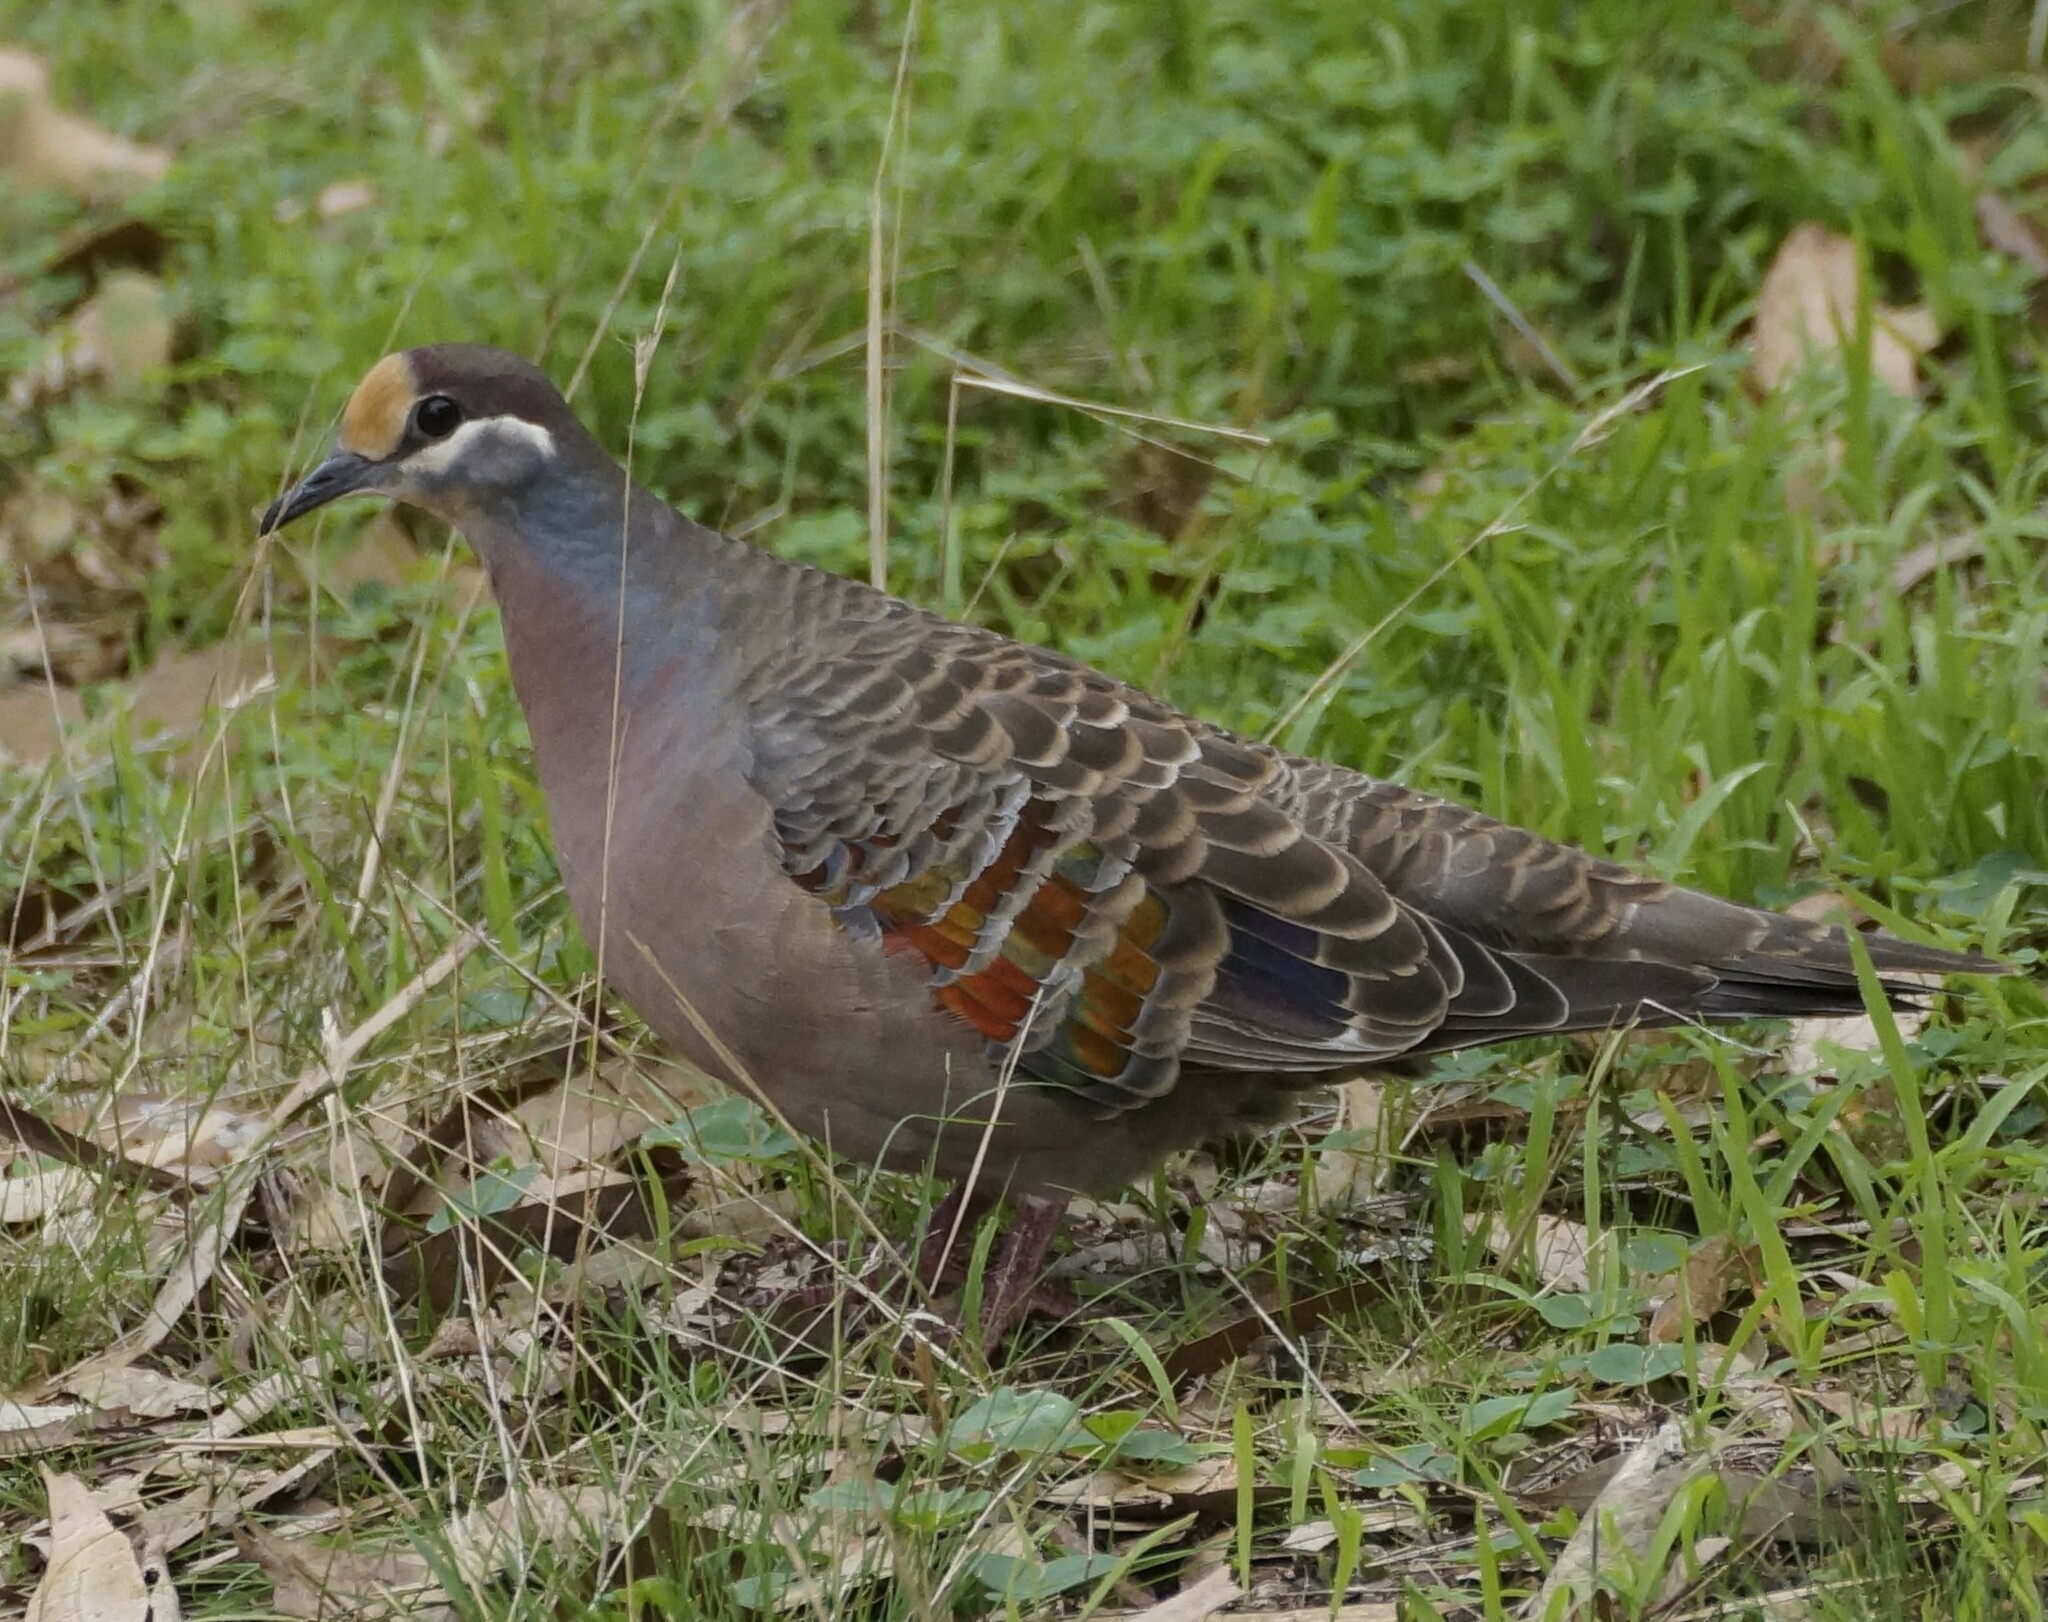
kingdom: Animalia
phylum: Chordata
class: Aves
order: Columbiformes
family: Columbidae
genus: Phaps
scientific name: Phaps chalcoptera
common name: Common bronzewing
